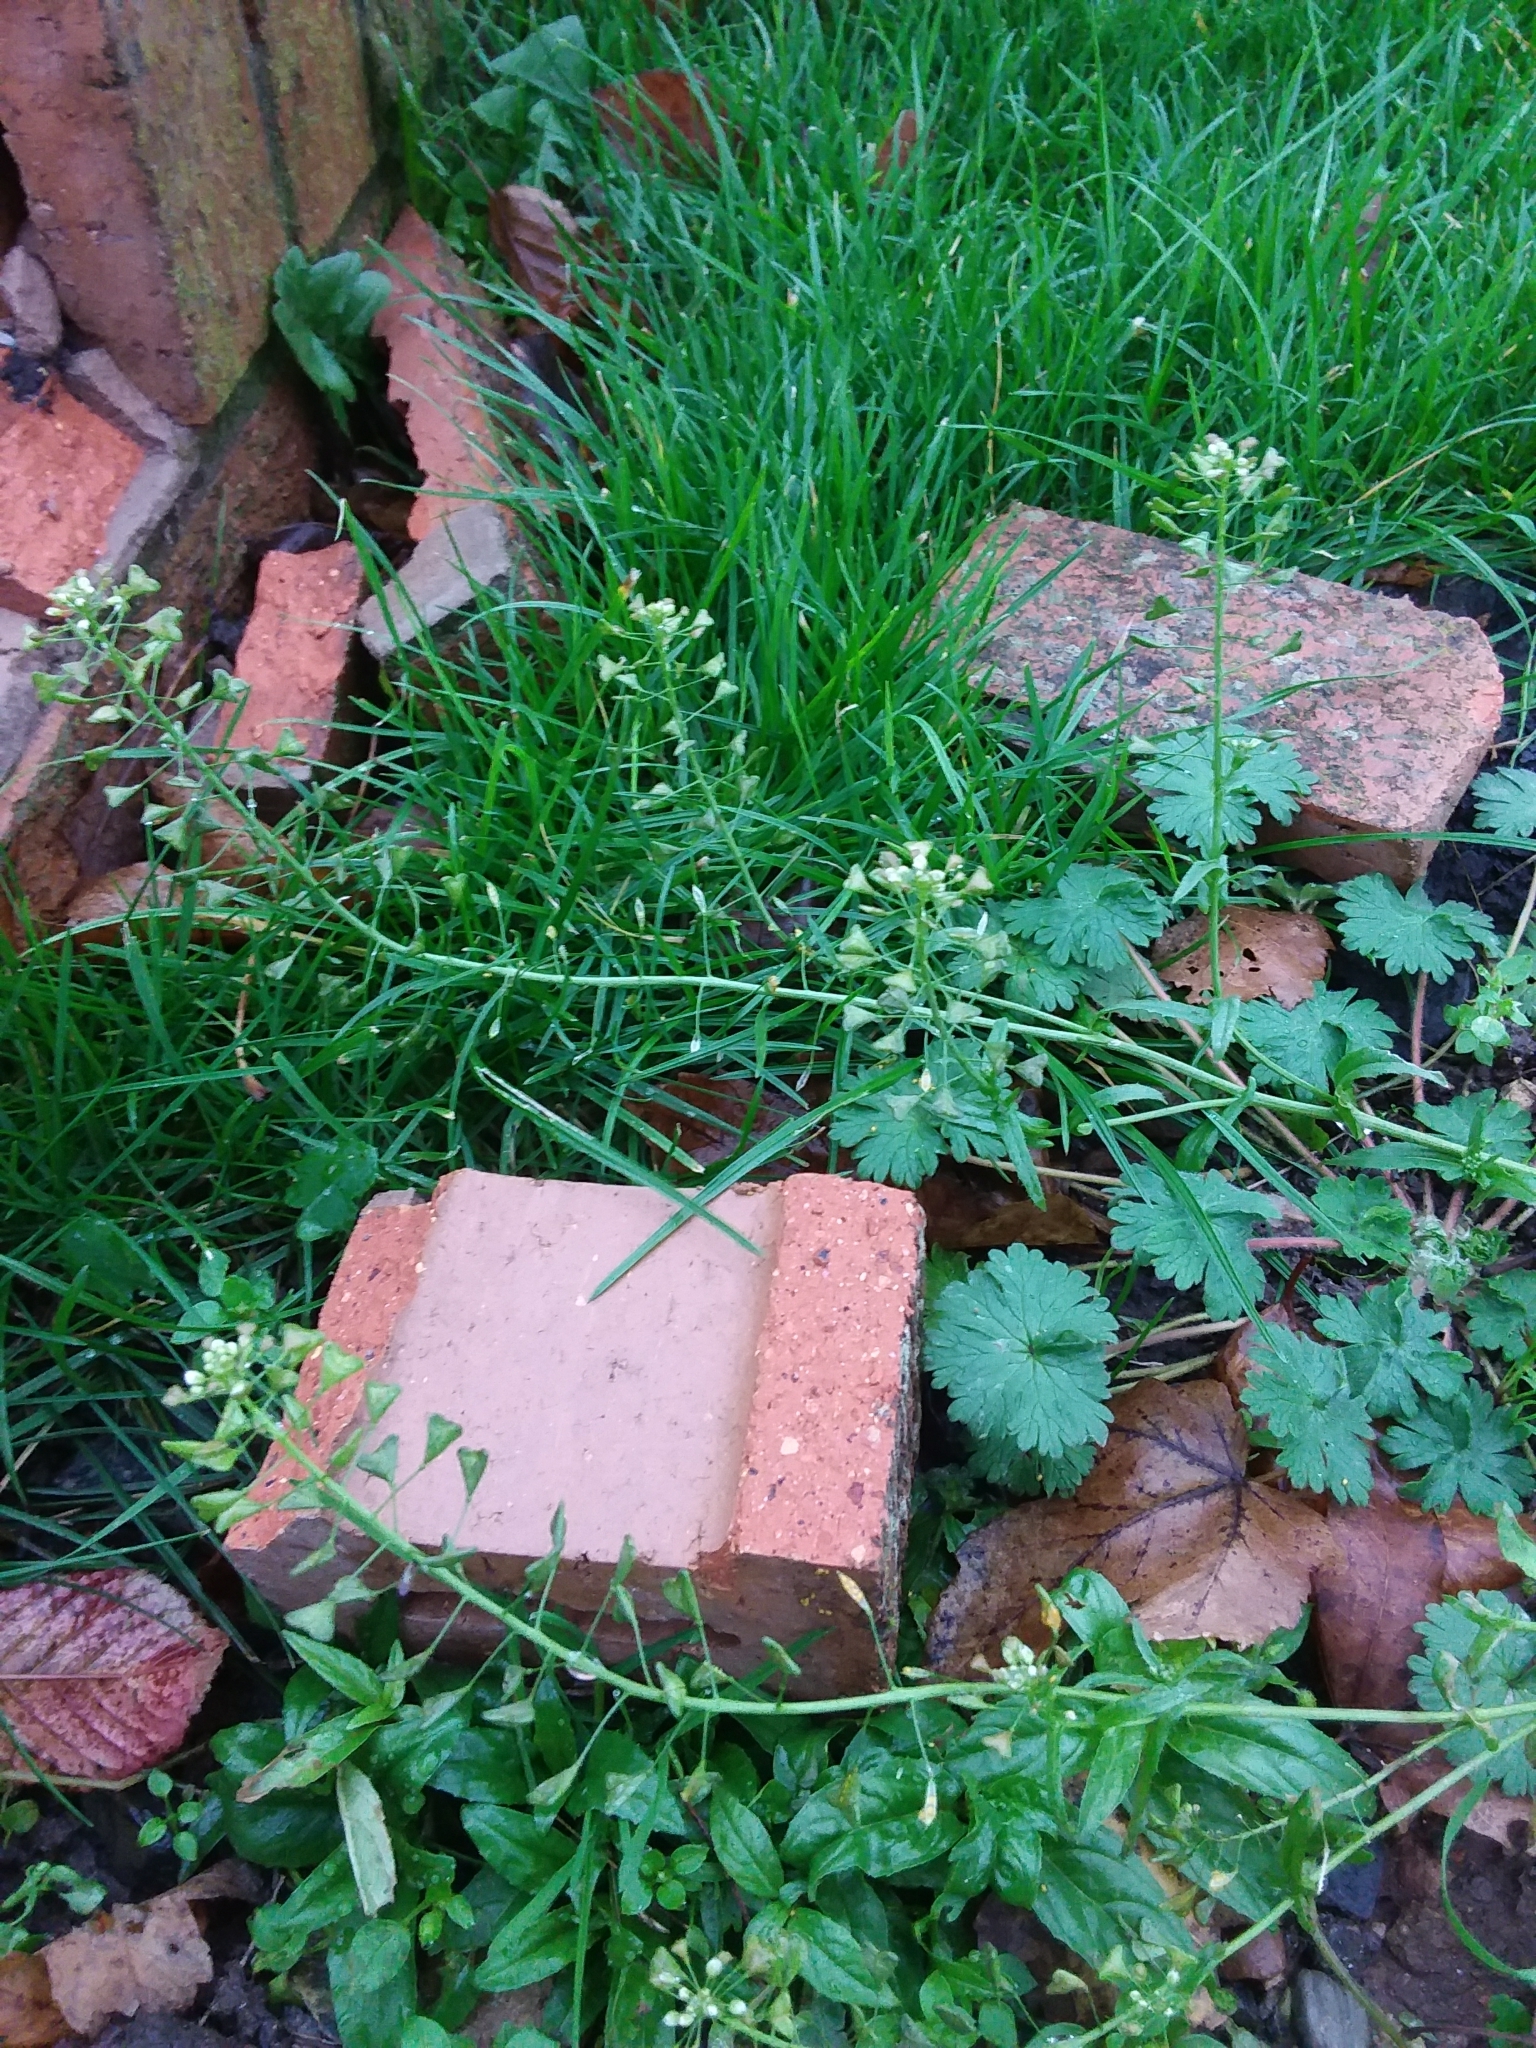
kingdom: Plantae
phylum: Tracheophyta
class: Magnoliopsida
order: Brassicales
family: Brassicaceae
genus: Capsella
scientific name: Capsella bursa-pastoris
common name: Shepherd's purse
